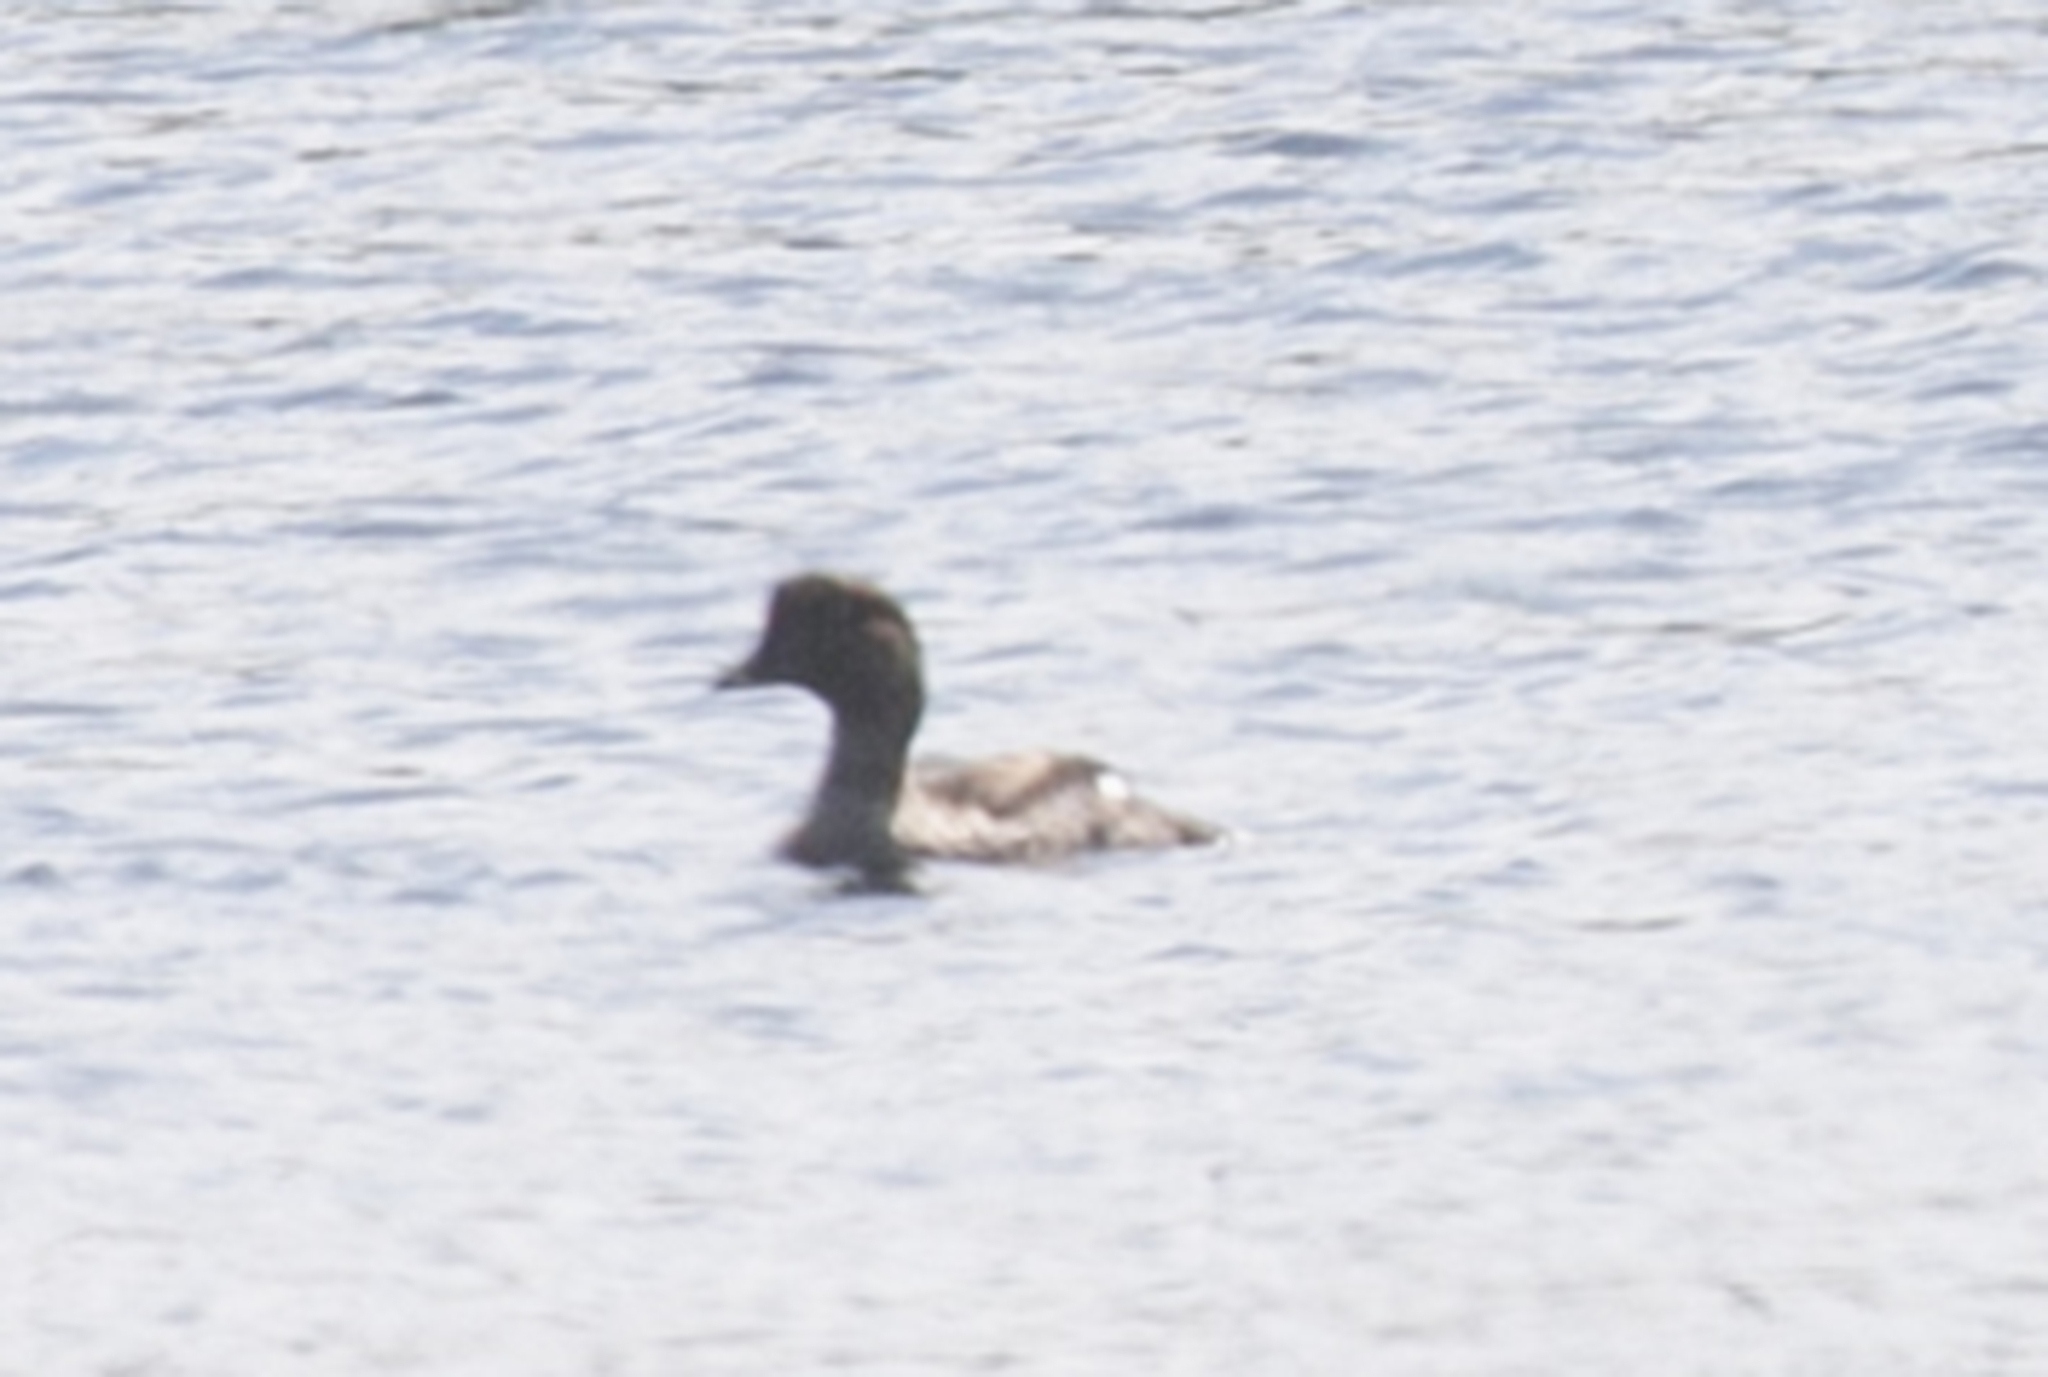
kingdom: Animalia
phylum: Chordata
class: Aves
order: Anseriformes
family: Anatidae
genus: Bucephala
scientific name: Bucephala clangula
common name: Common goldeneye
